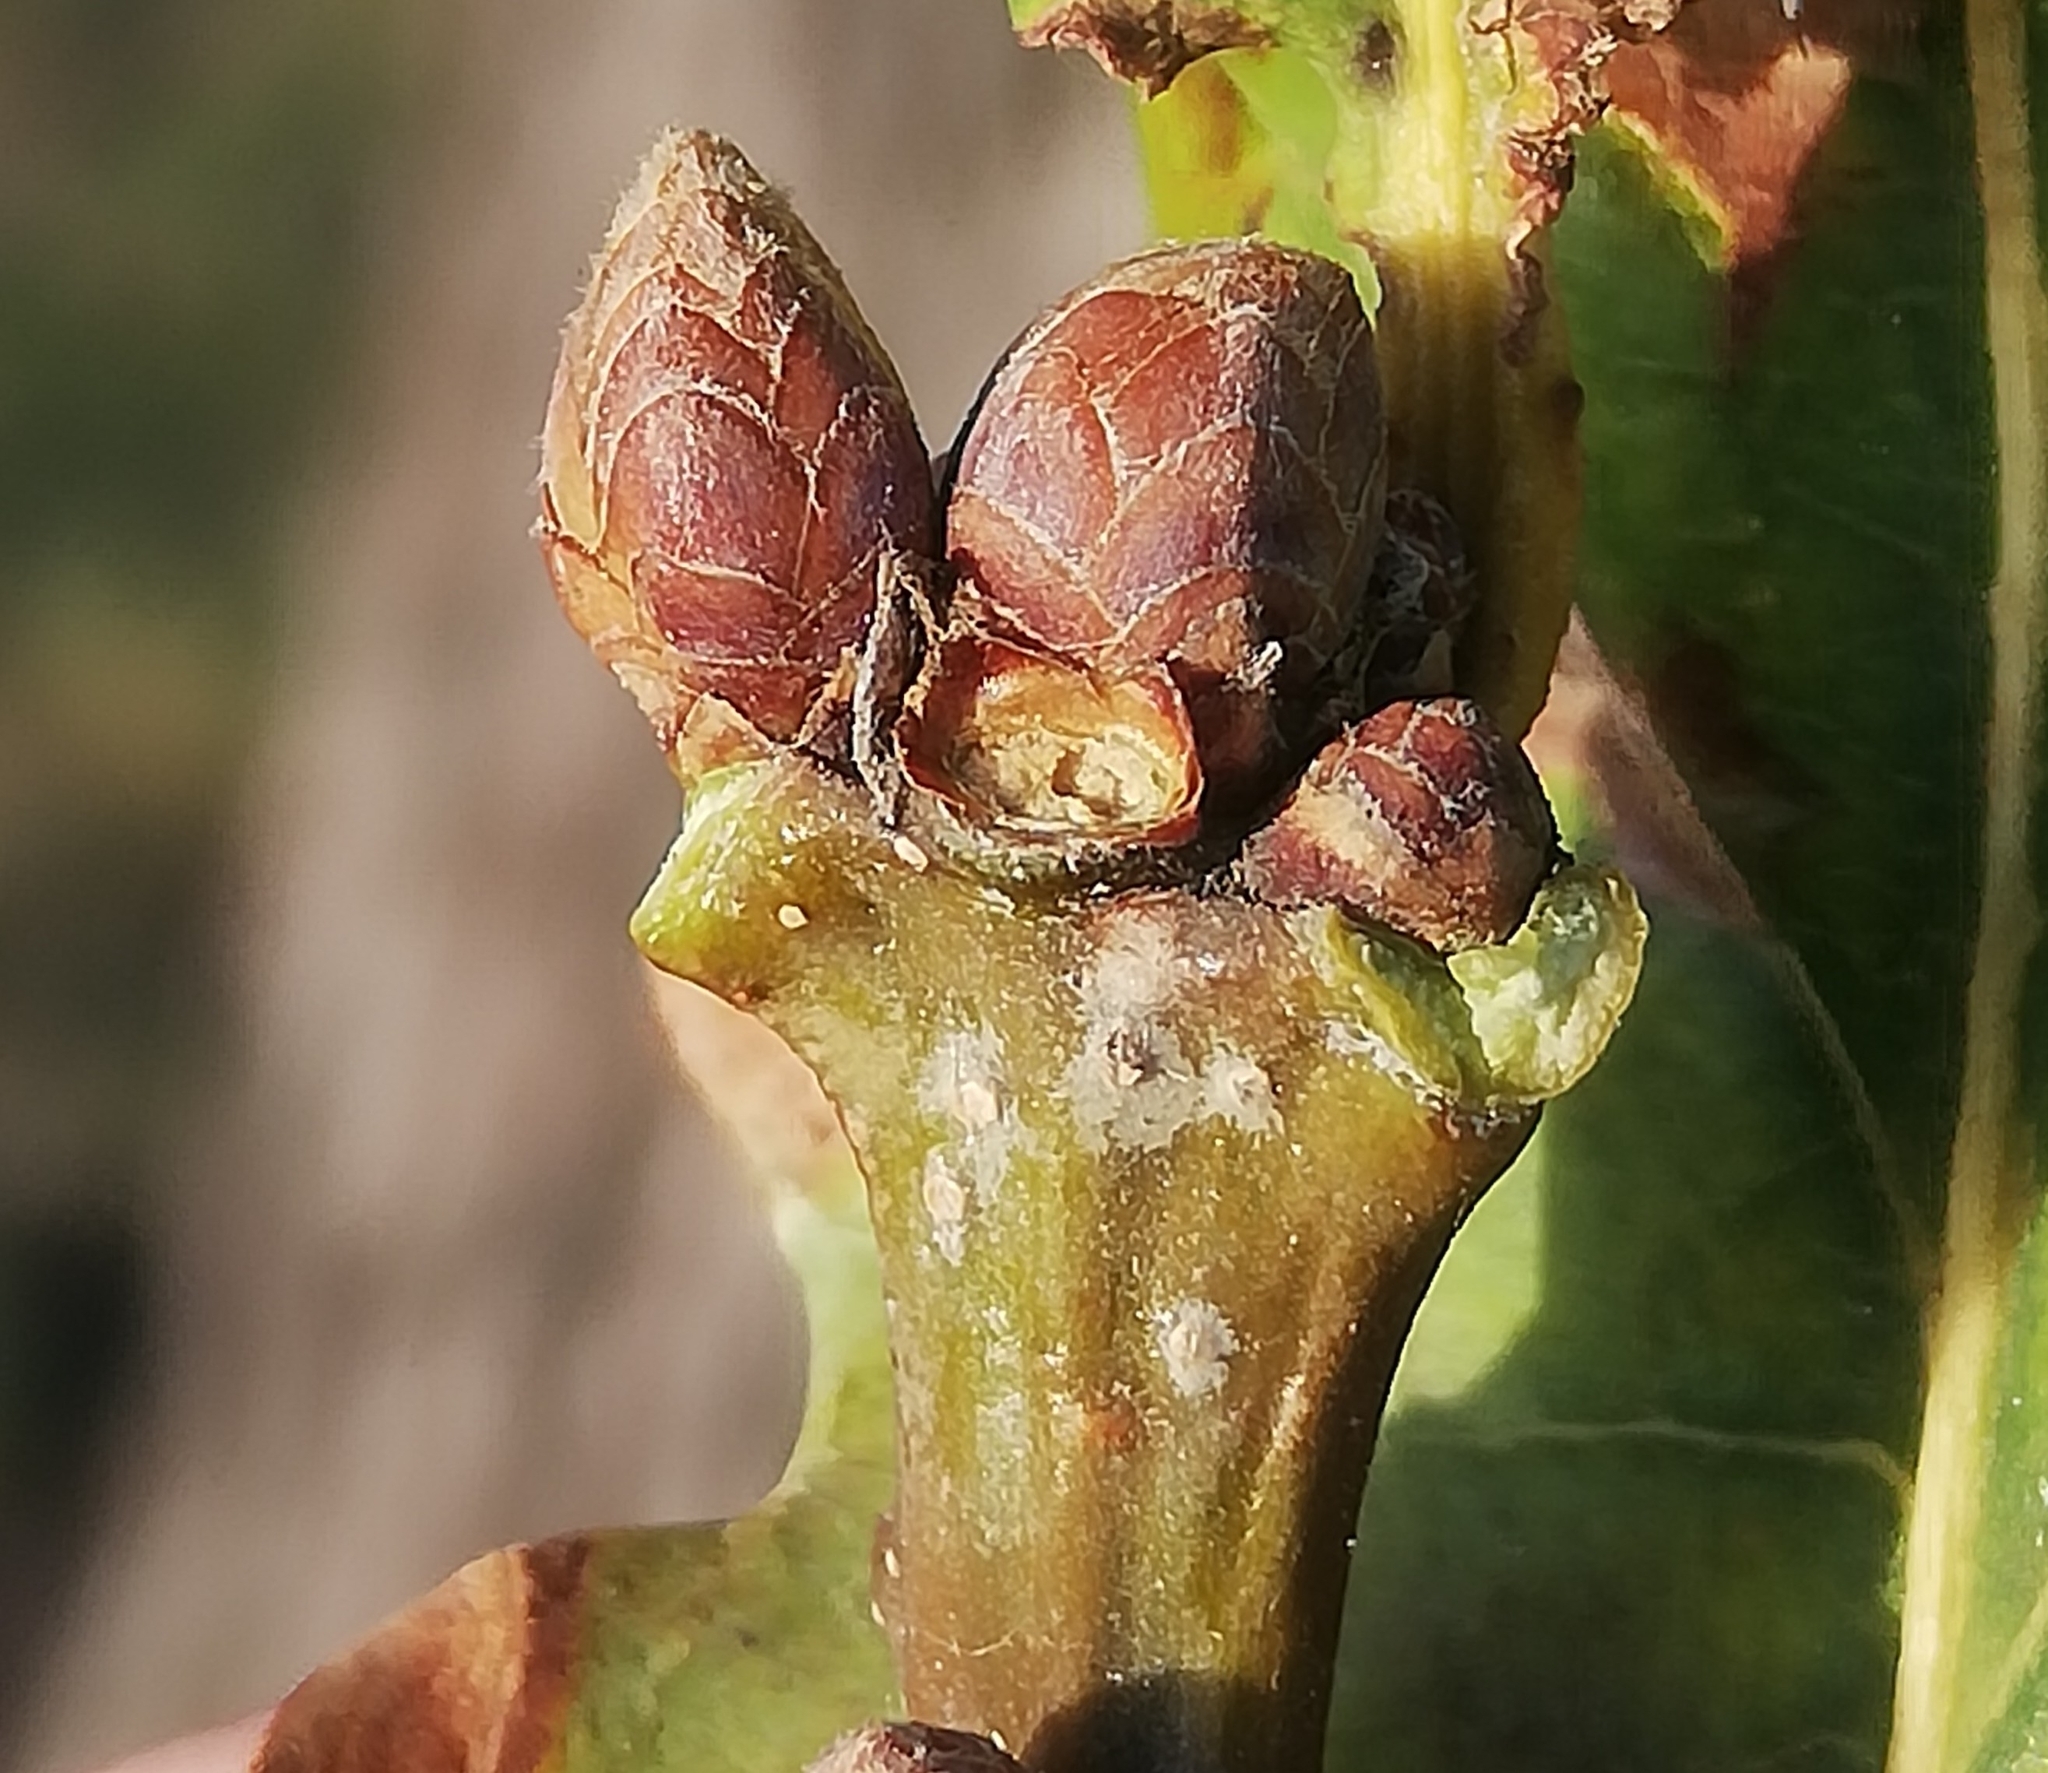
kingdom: Plantae
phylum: Tracheophyta
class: Magnoliopsida
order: Fagales
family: Fagaceae
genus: Quercus
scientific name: Quercus robur
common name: Pedunculate oak
